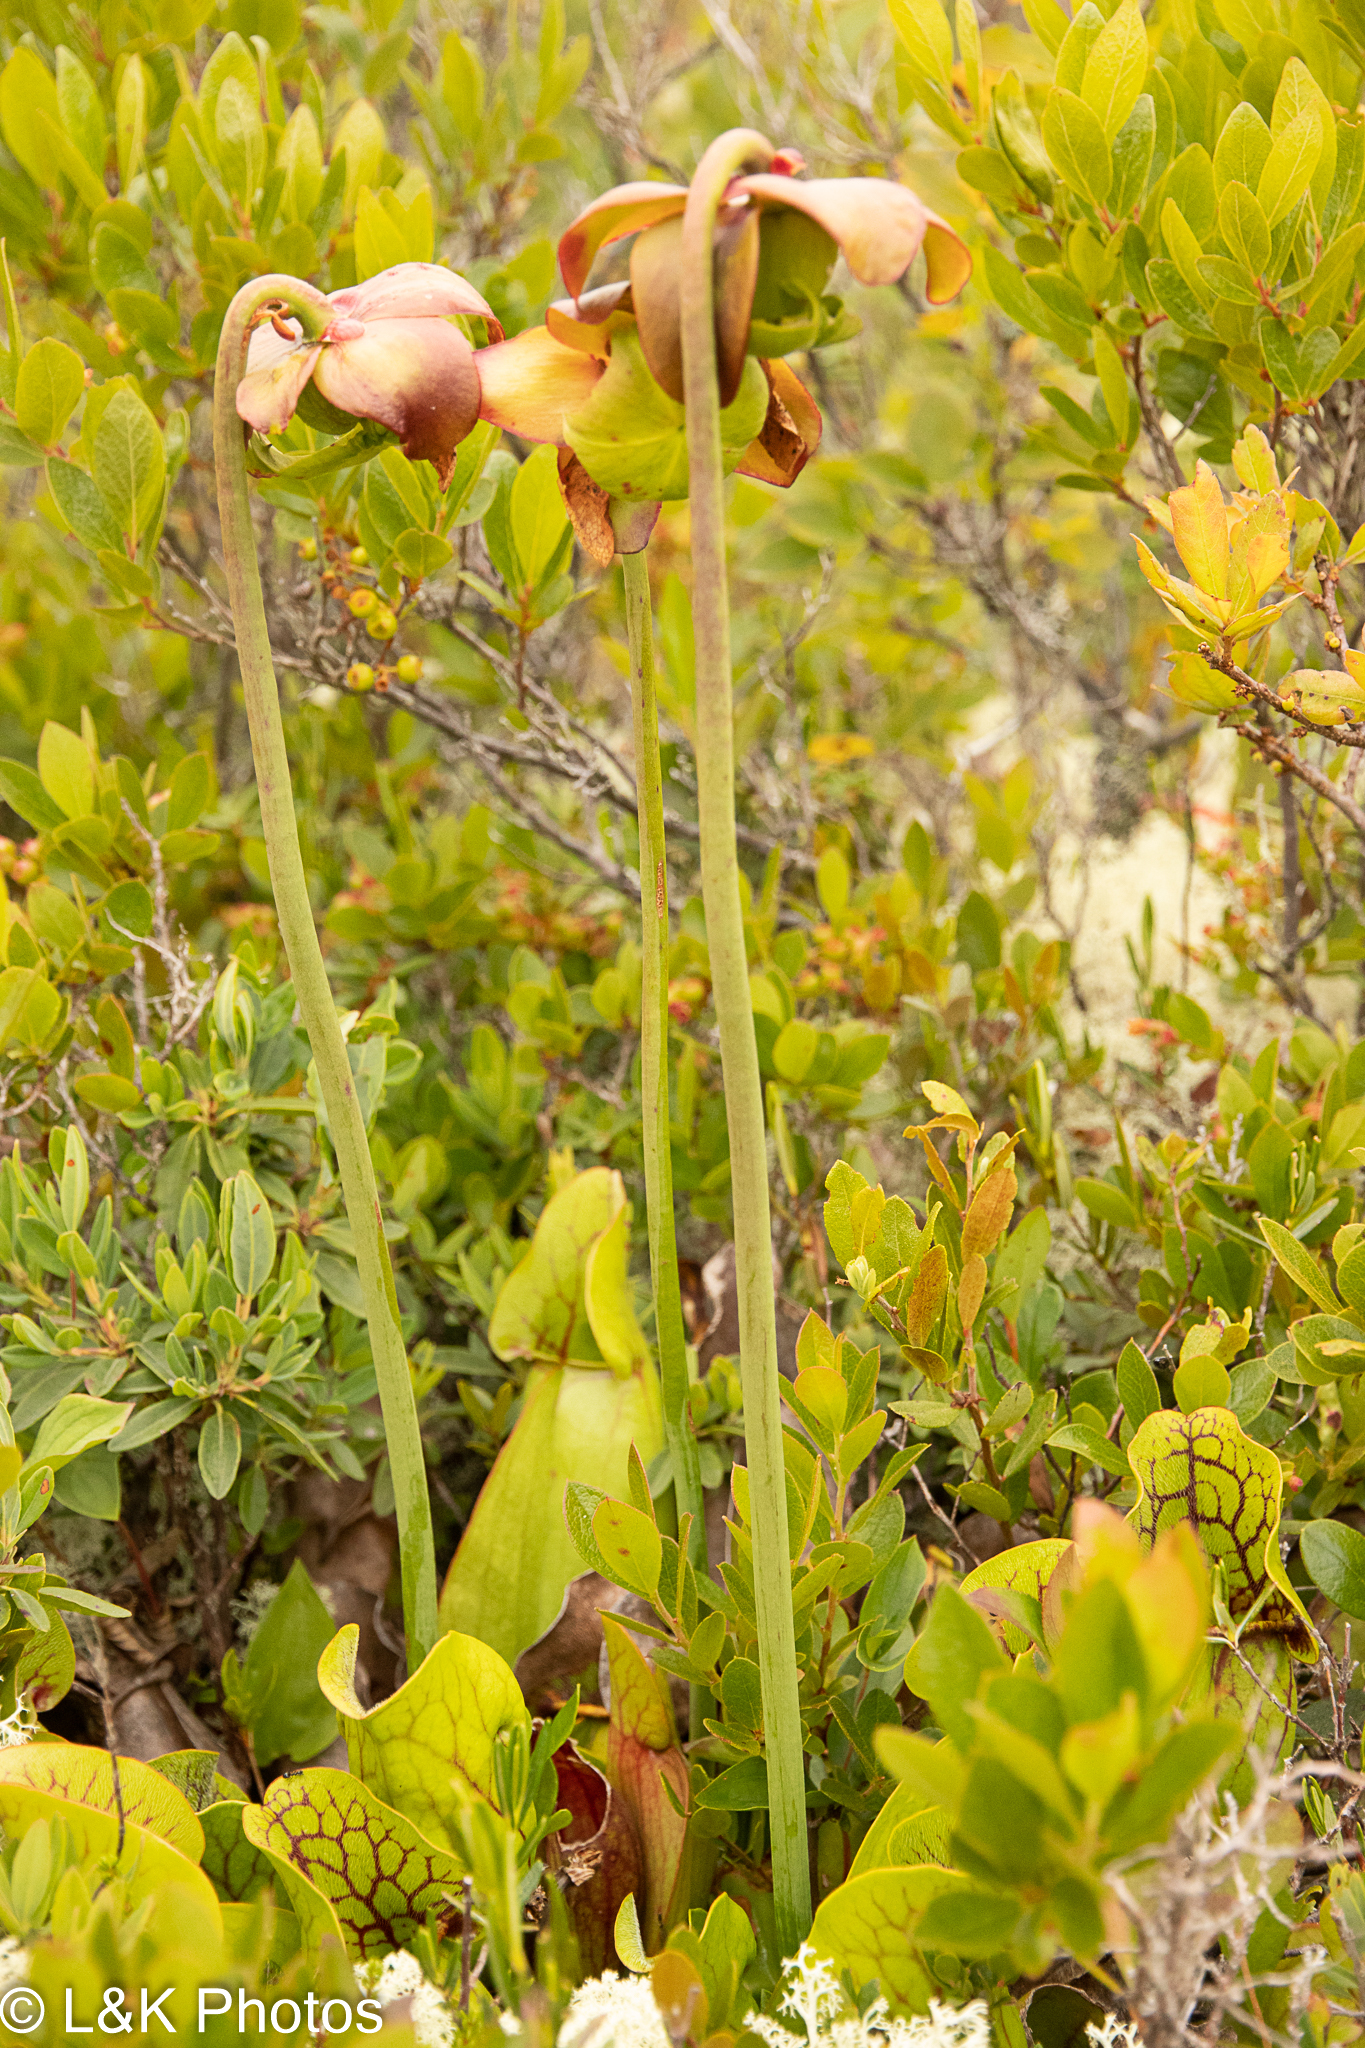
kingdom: Plantae
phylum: Tracheophyta
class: Magnoliopsida
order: Ericales
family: Sarraceniaceae
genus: Sarracenia
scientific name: Sarracenia purpurea
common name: Pitcherplant
